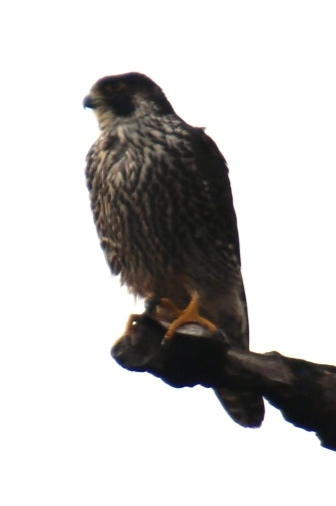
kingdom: Animalia
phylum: Chordata
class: Aves
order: Falconiformes
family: Falconidae
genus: Falco
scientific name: Falco peregrinus
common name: Peregrine falcon
